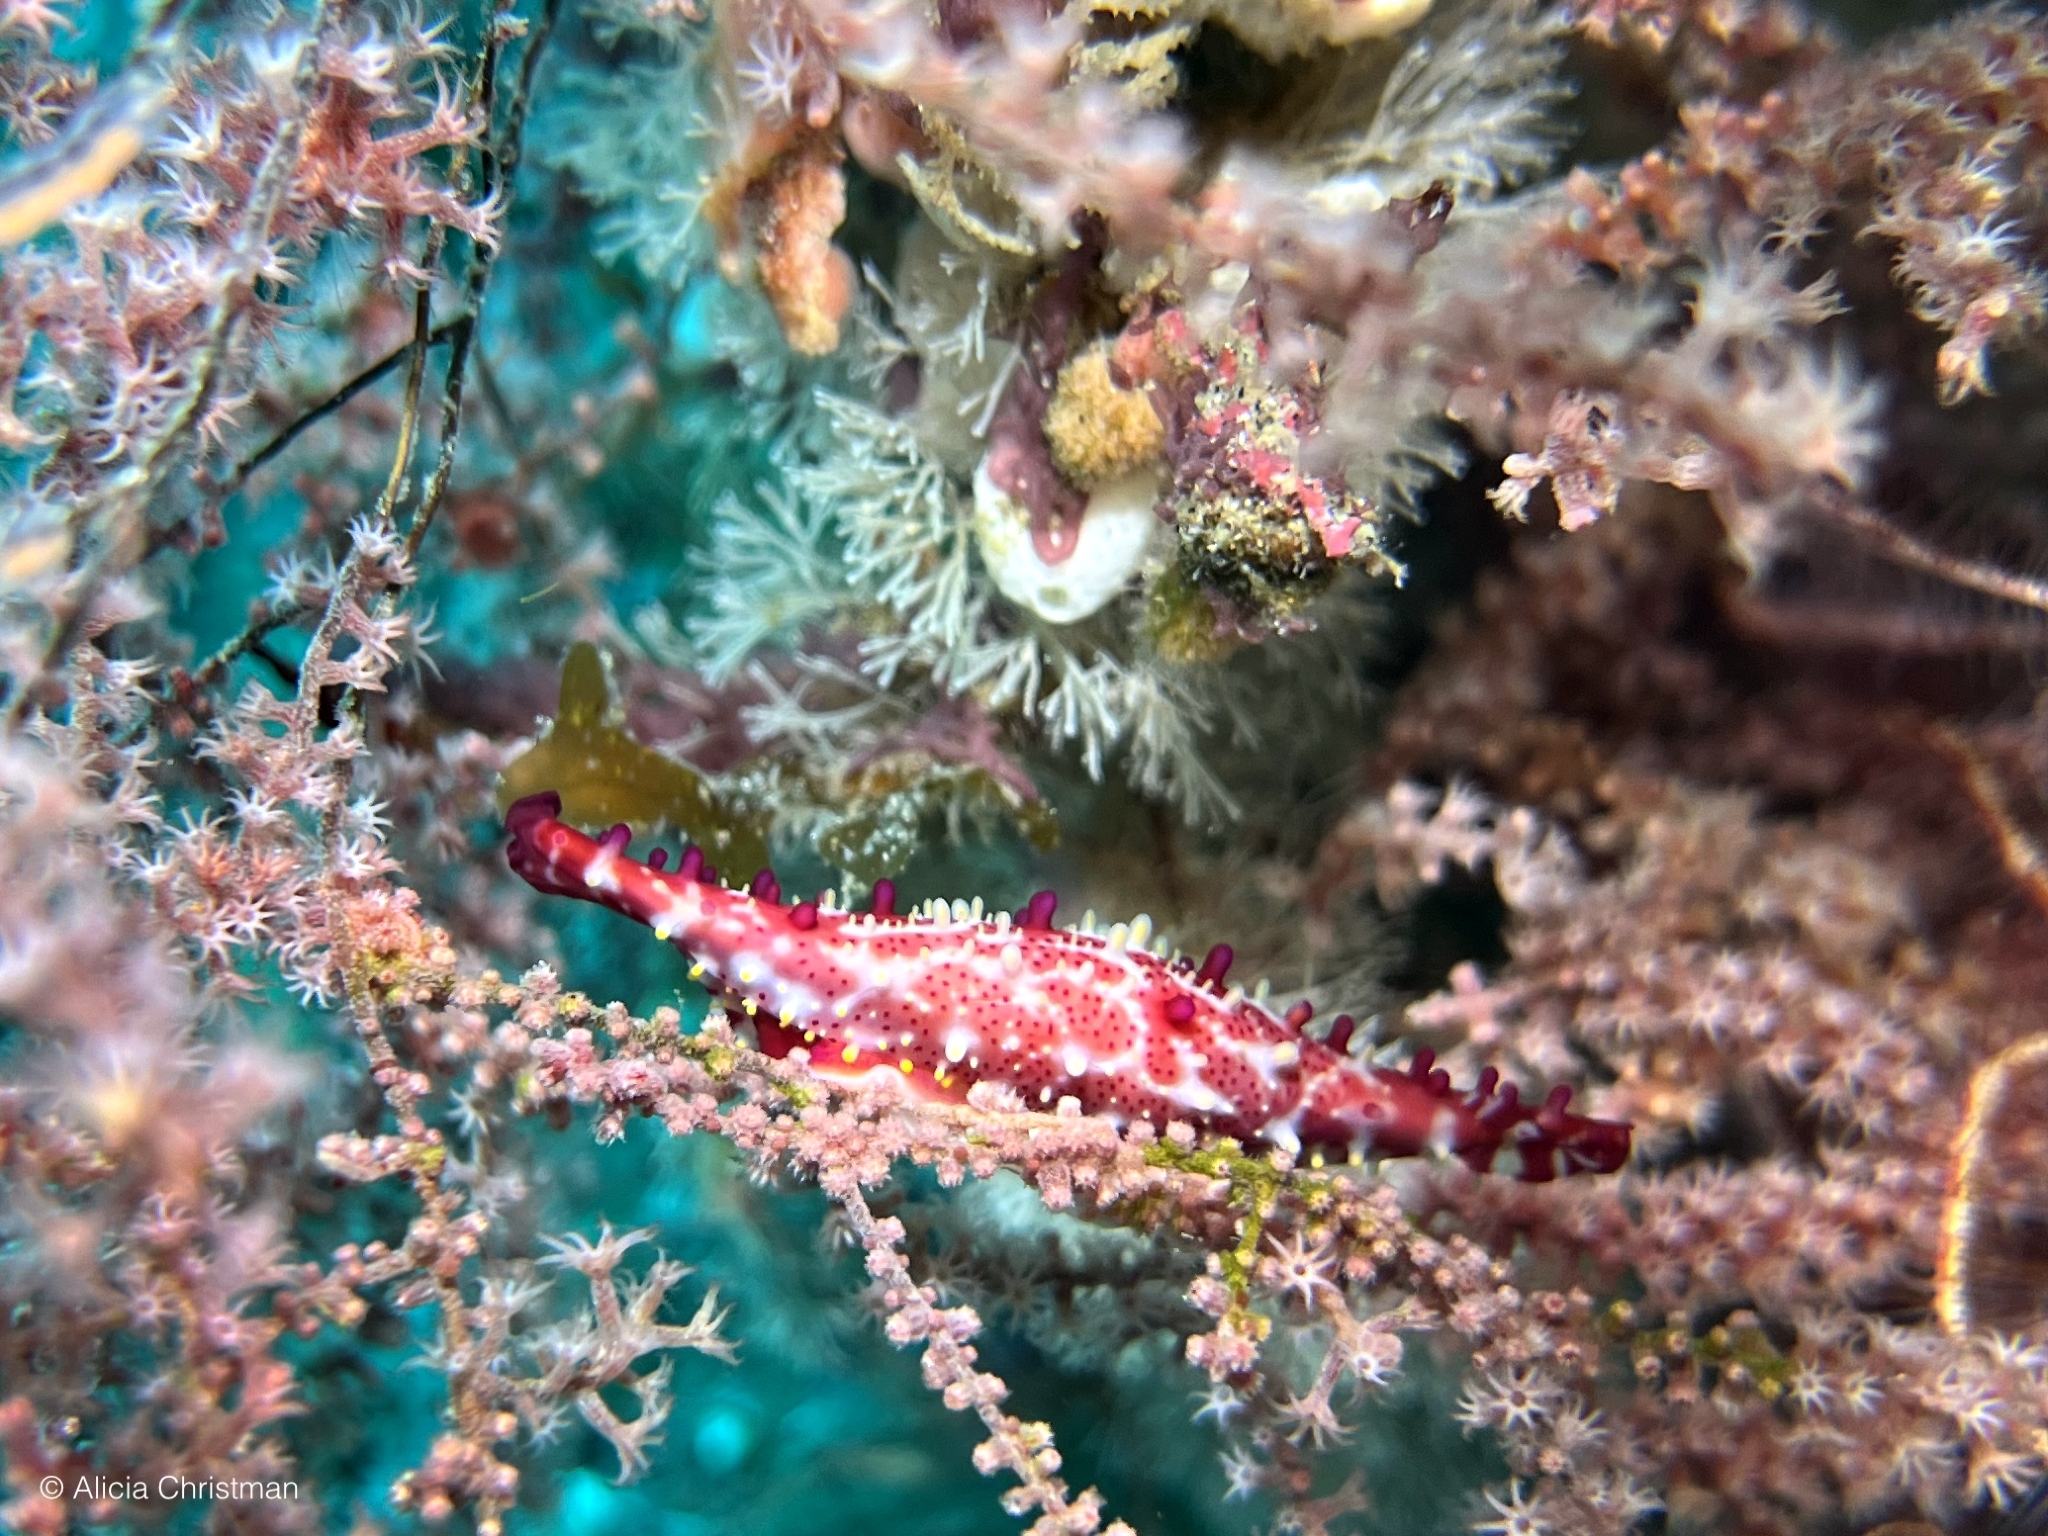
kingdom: Animalia
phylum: Mollusca
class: Gastropoda
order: Littorinimorpha
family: Ovulidae
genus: Phenacovolva
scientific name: Phenacovolva rosea
